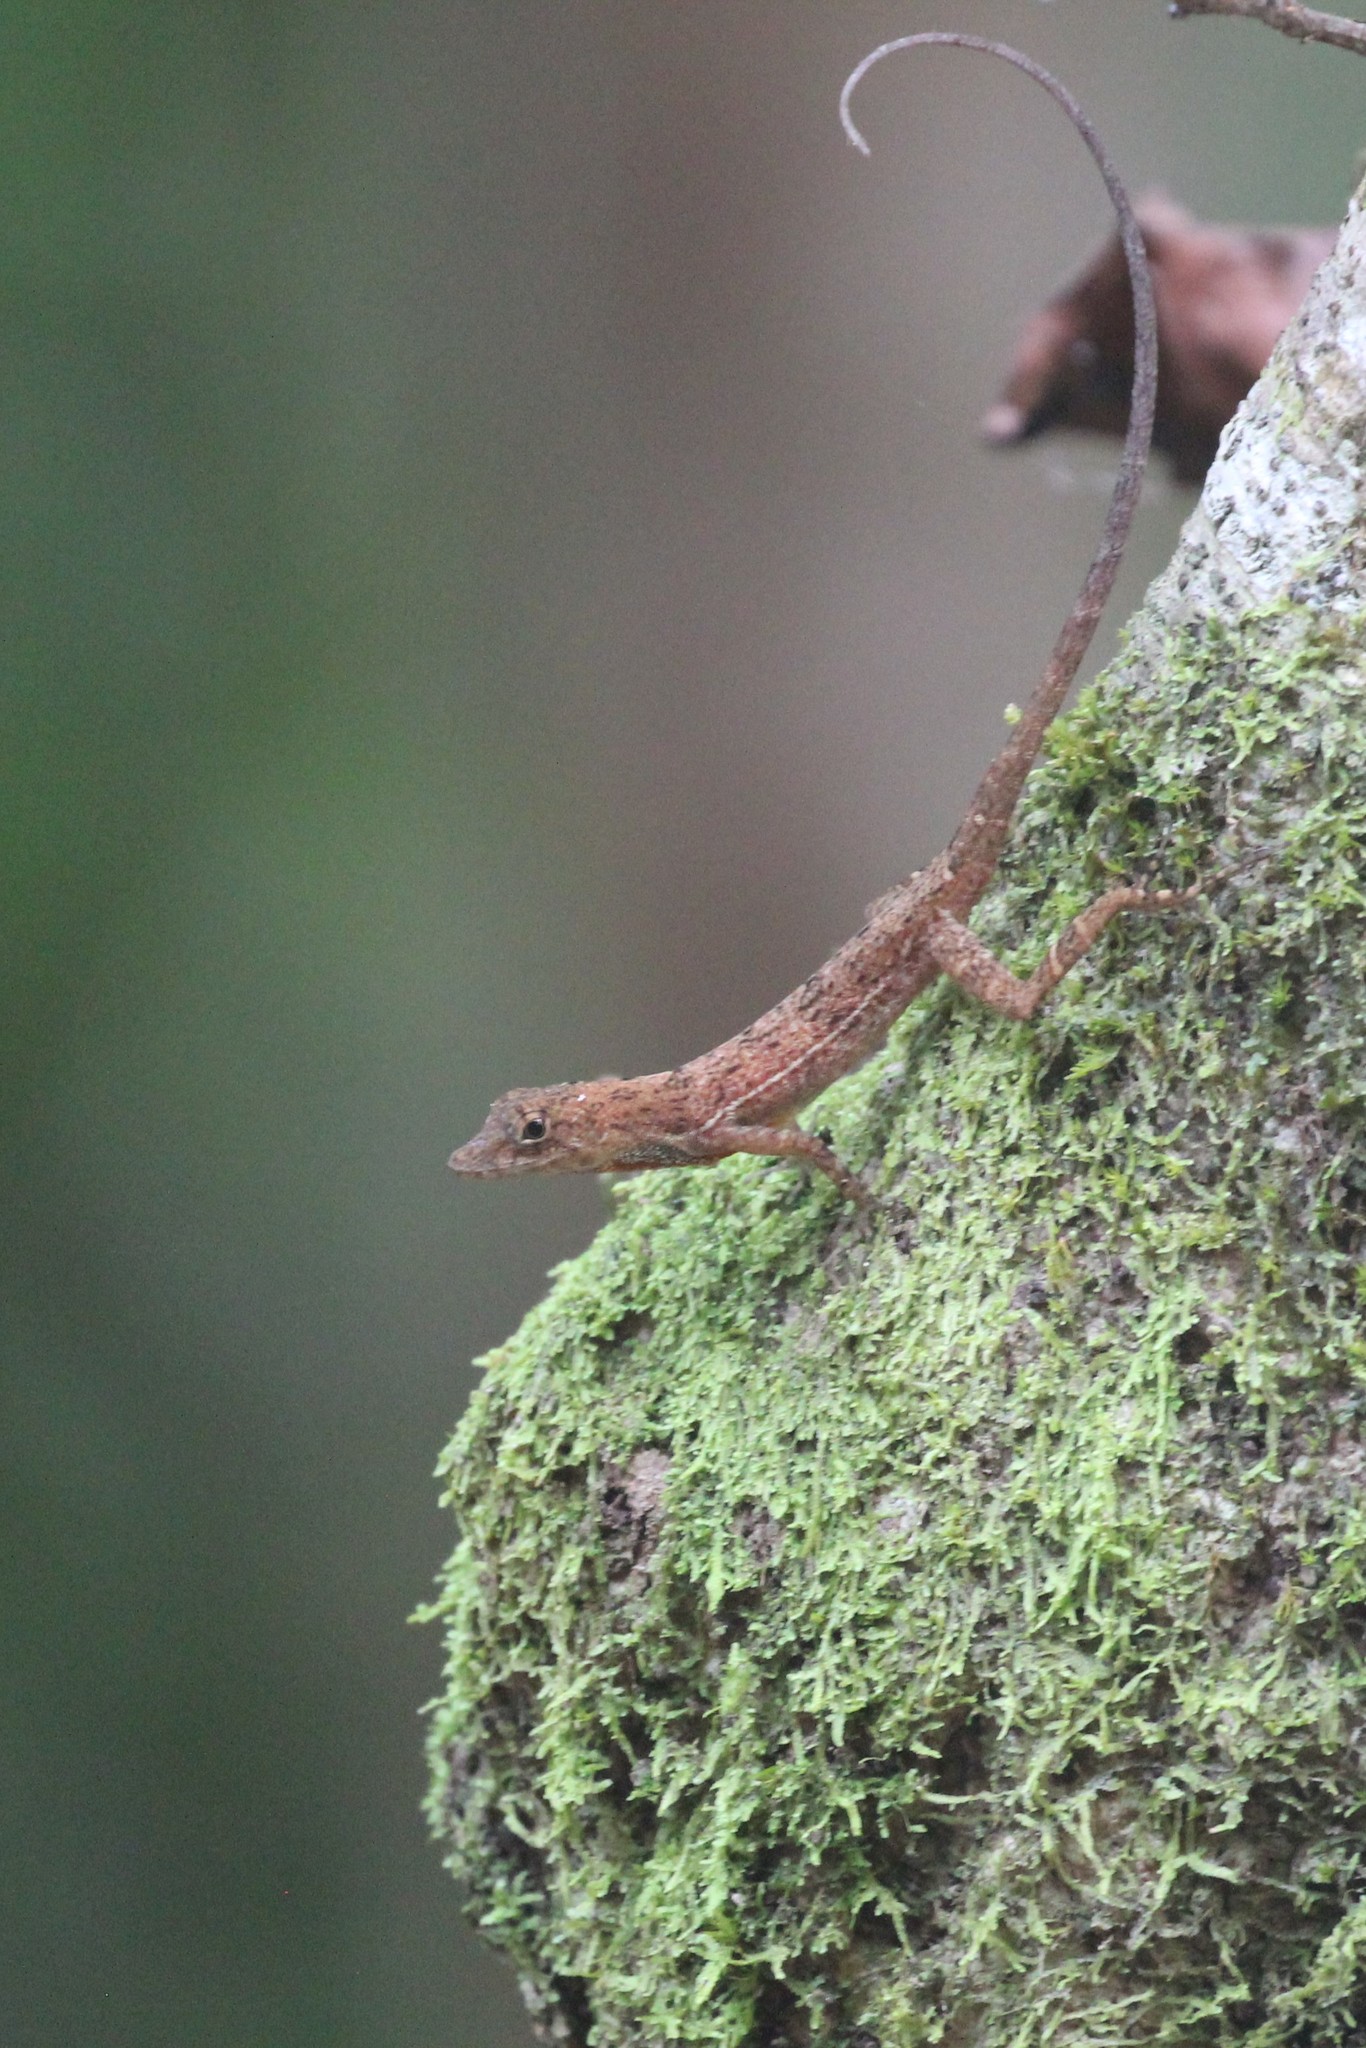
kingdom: Animalia
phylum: Chordata
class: Squamata
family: Dactyloidae
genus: Anolis
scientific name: Anolis osa
